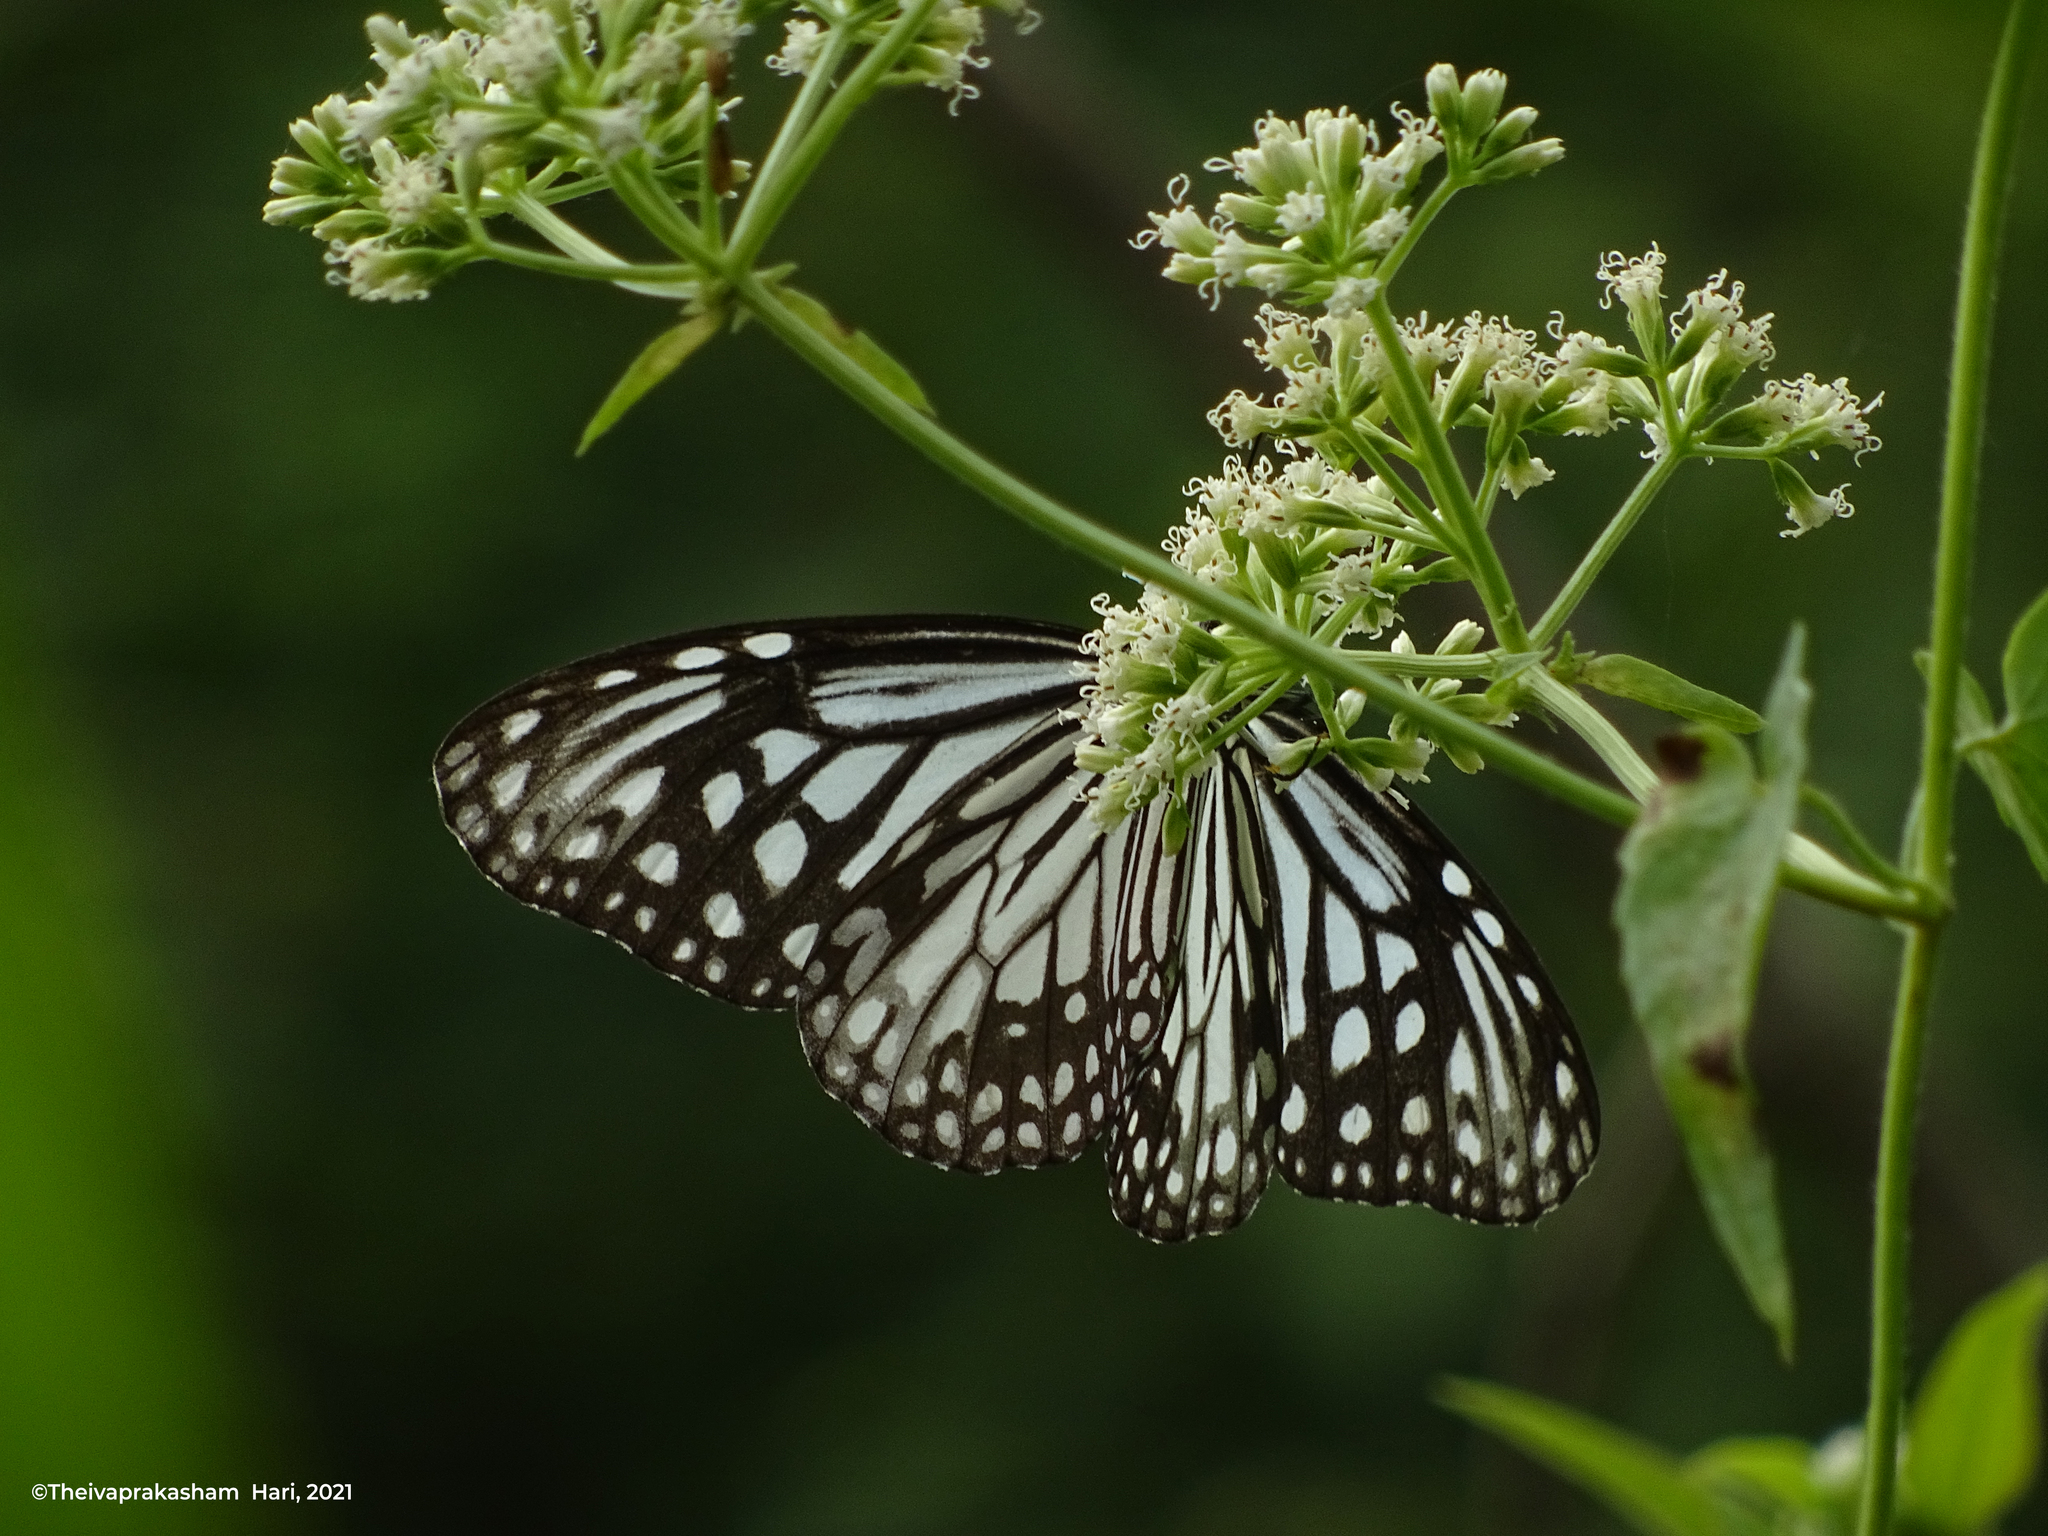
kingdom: Animalia
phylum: Arthropoda
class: Insecta
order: Lepidoptera
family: Nymphalidae
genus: Parantica
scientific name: Parantica aglea
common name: Glassy tiger
